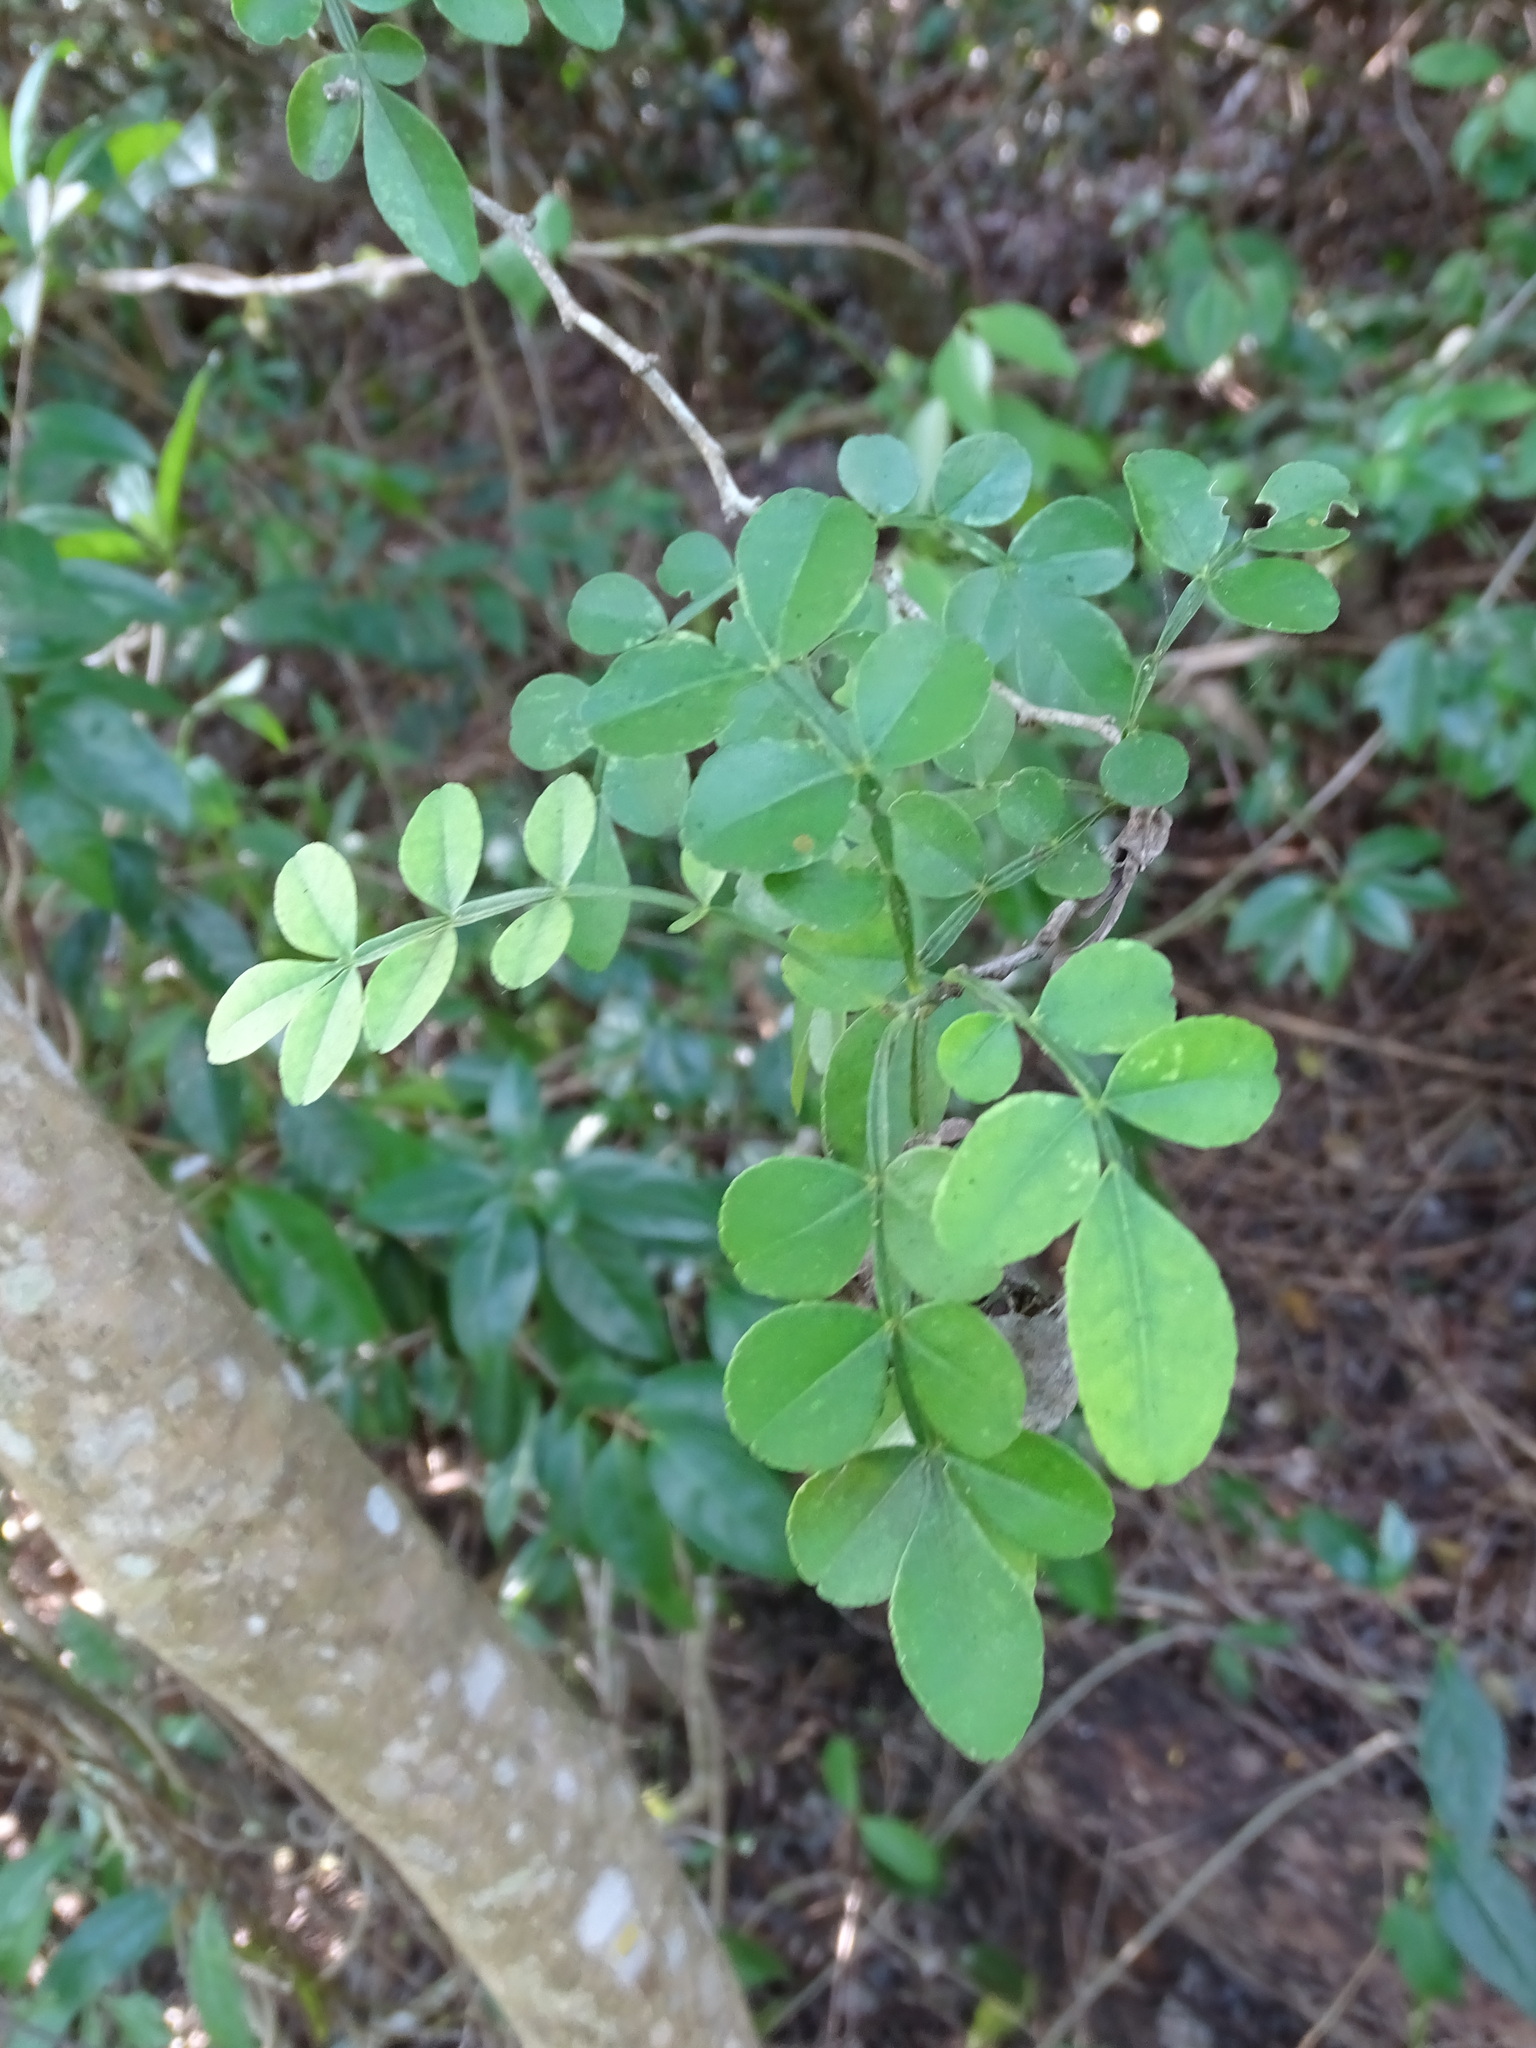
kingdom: Plantae
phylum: Tracheophyta
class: Magnoliopsida
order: Sapindales
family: Rutaceae
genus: Zanthoxylum
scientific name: Zanthoxylum fagara
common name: Lime prickly-ash
